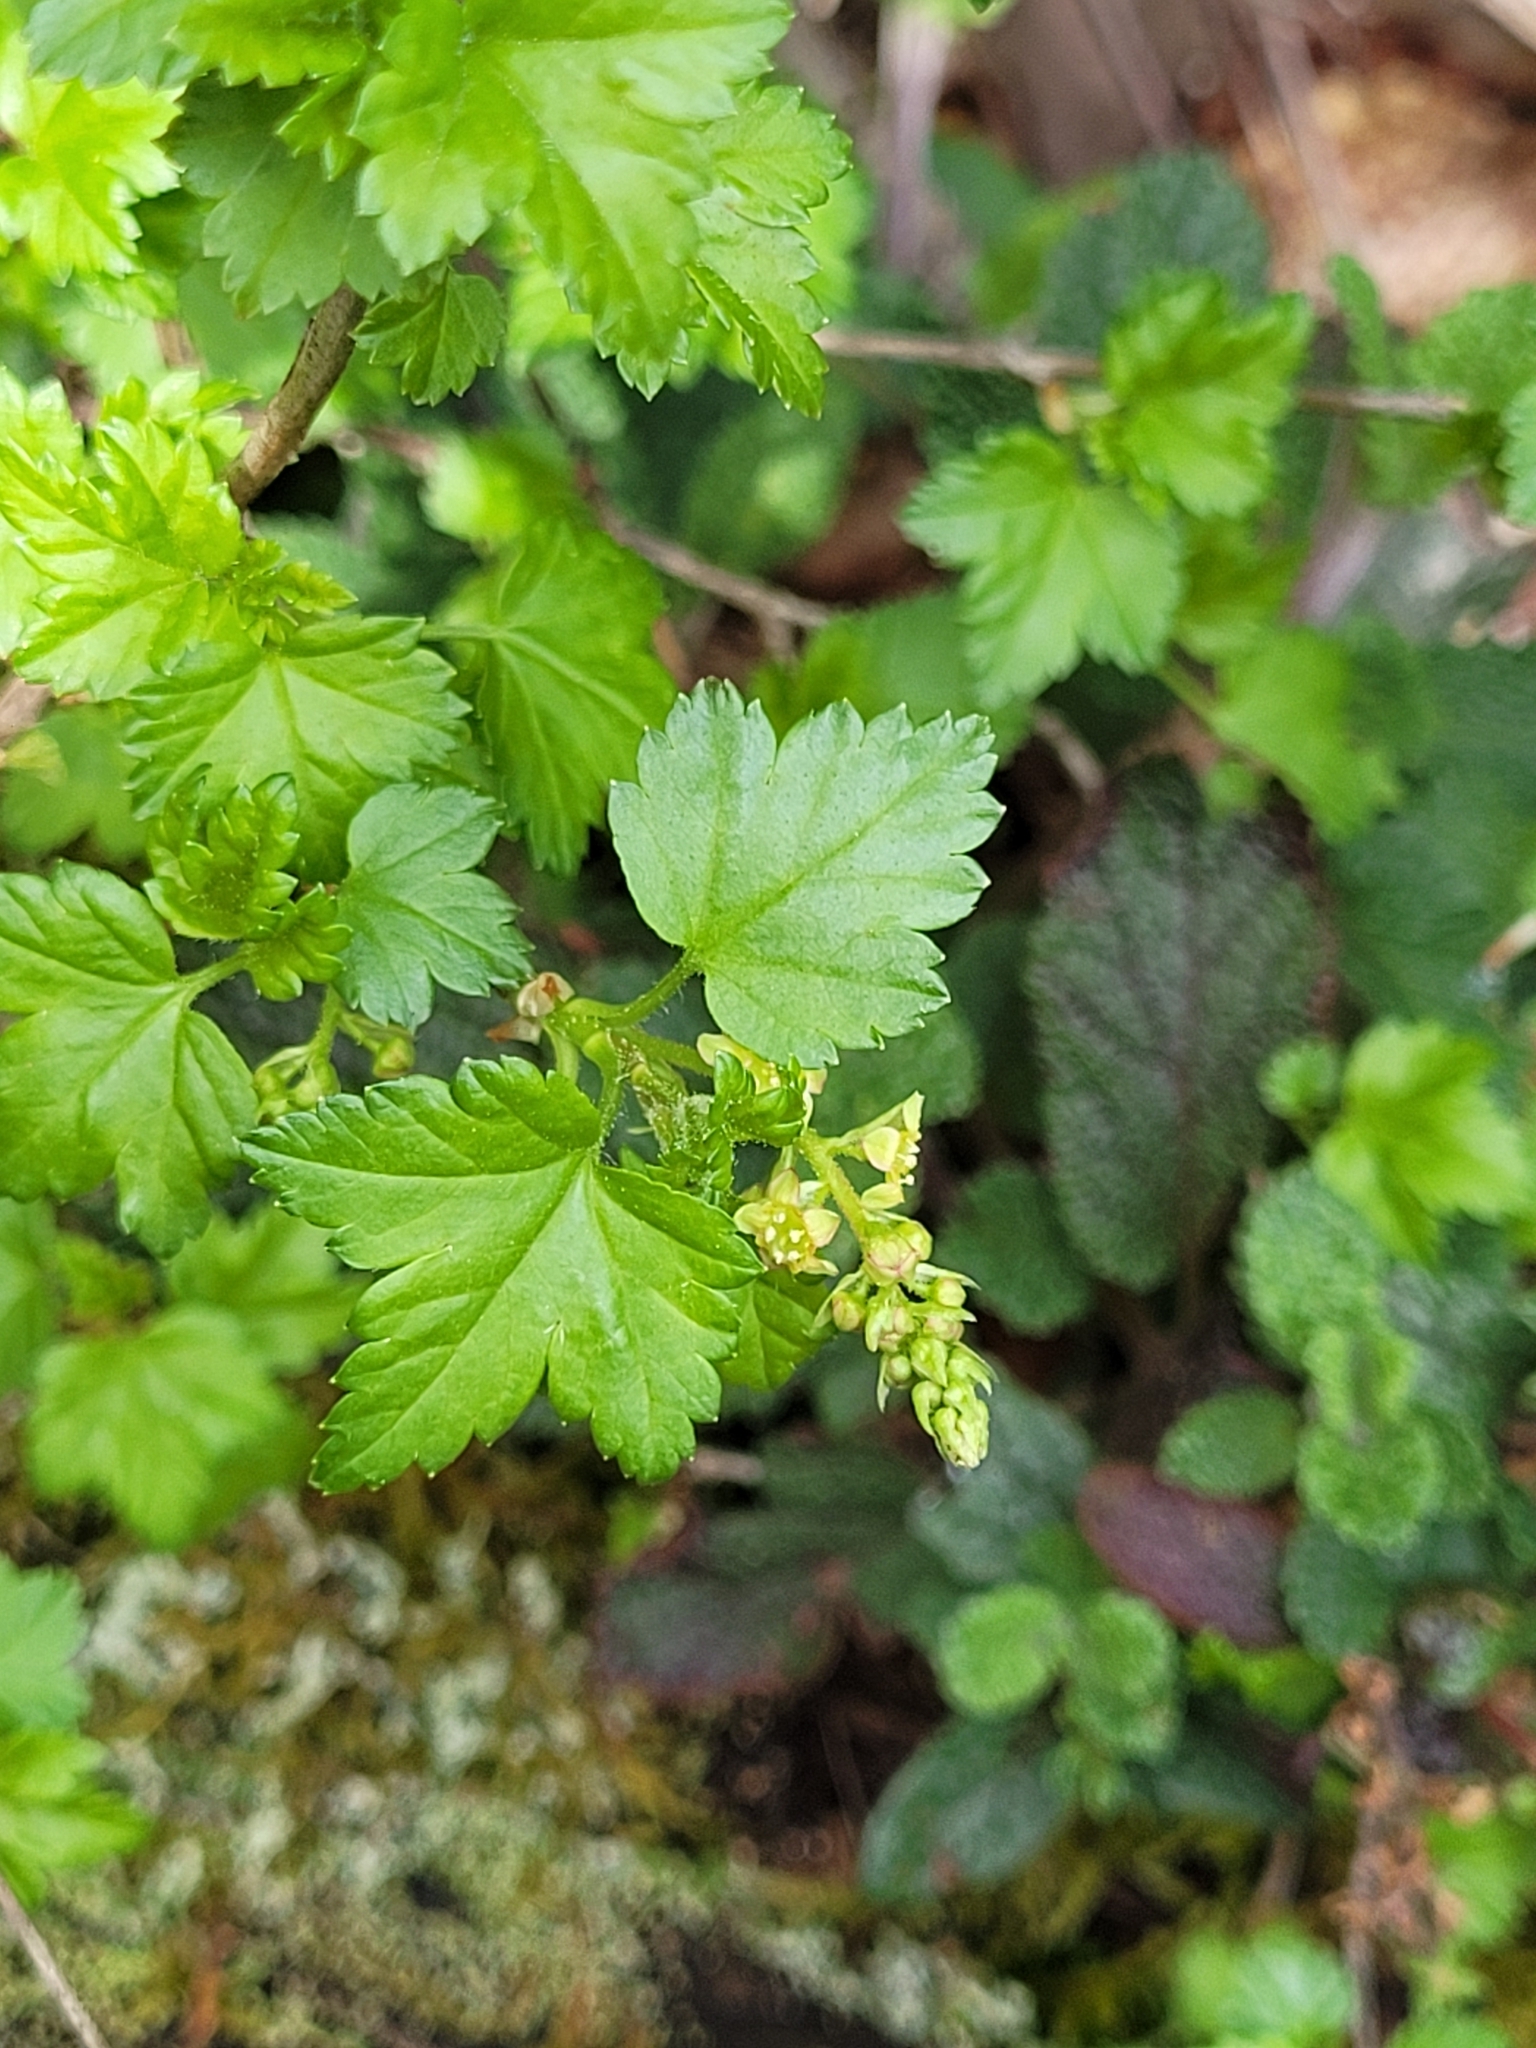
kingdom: Plantae
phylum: Tracheophyta
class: Magnoliopsida
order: Saxifragales
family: Grossulariaceae
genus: Ribes
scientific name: Ribes alpinum
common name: Alpine currant
